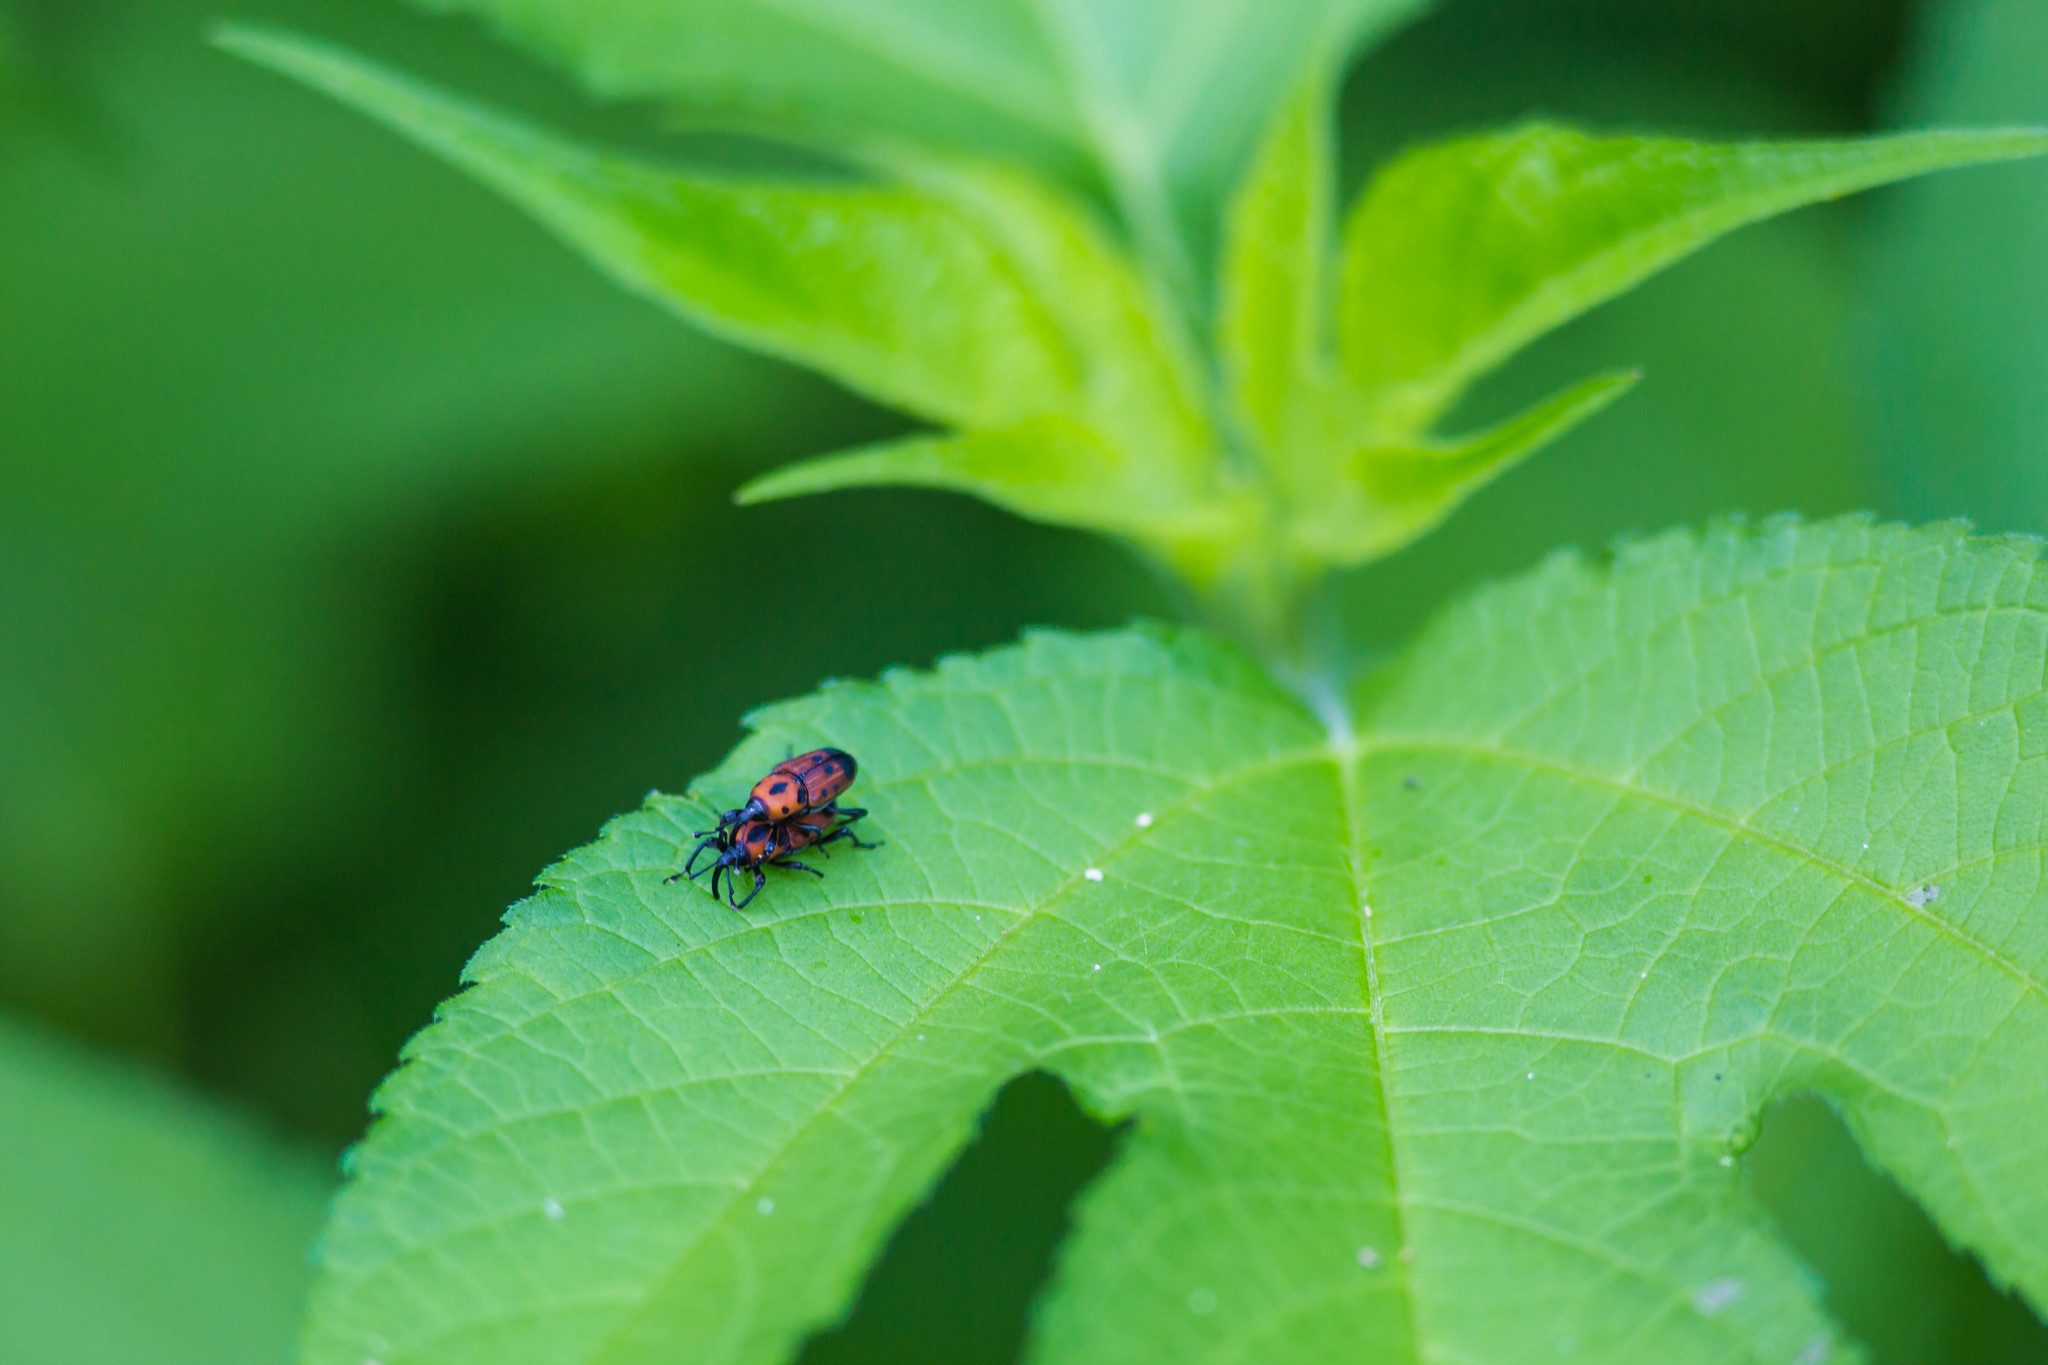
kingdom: Animalia
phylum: Arthropoda
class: Insecta
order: Coleoptera
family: Dryophthoridae
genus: Rhodobaenus
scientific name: Rhodobaenus quinquepunctatus
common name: Cocklebur weevil
